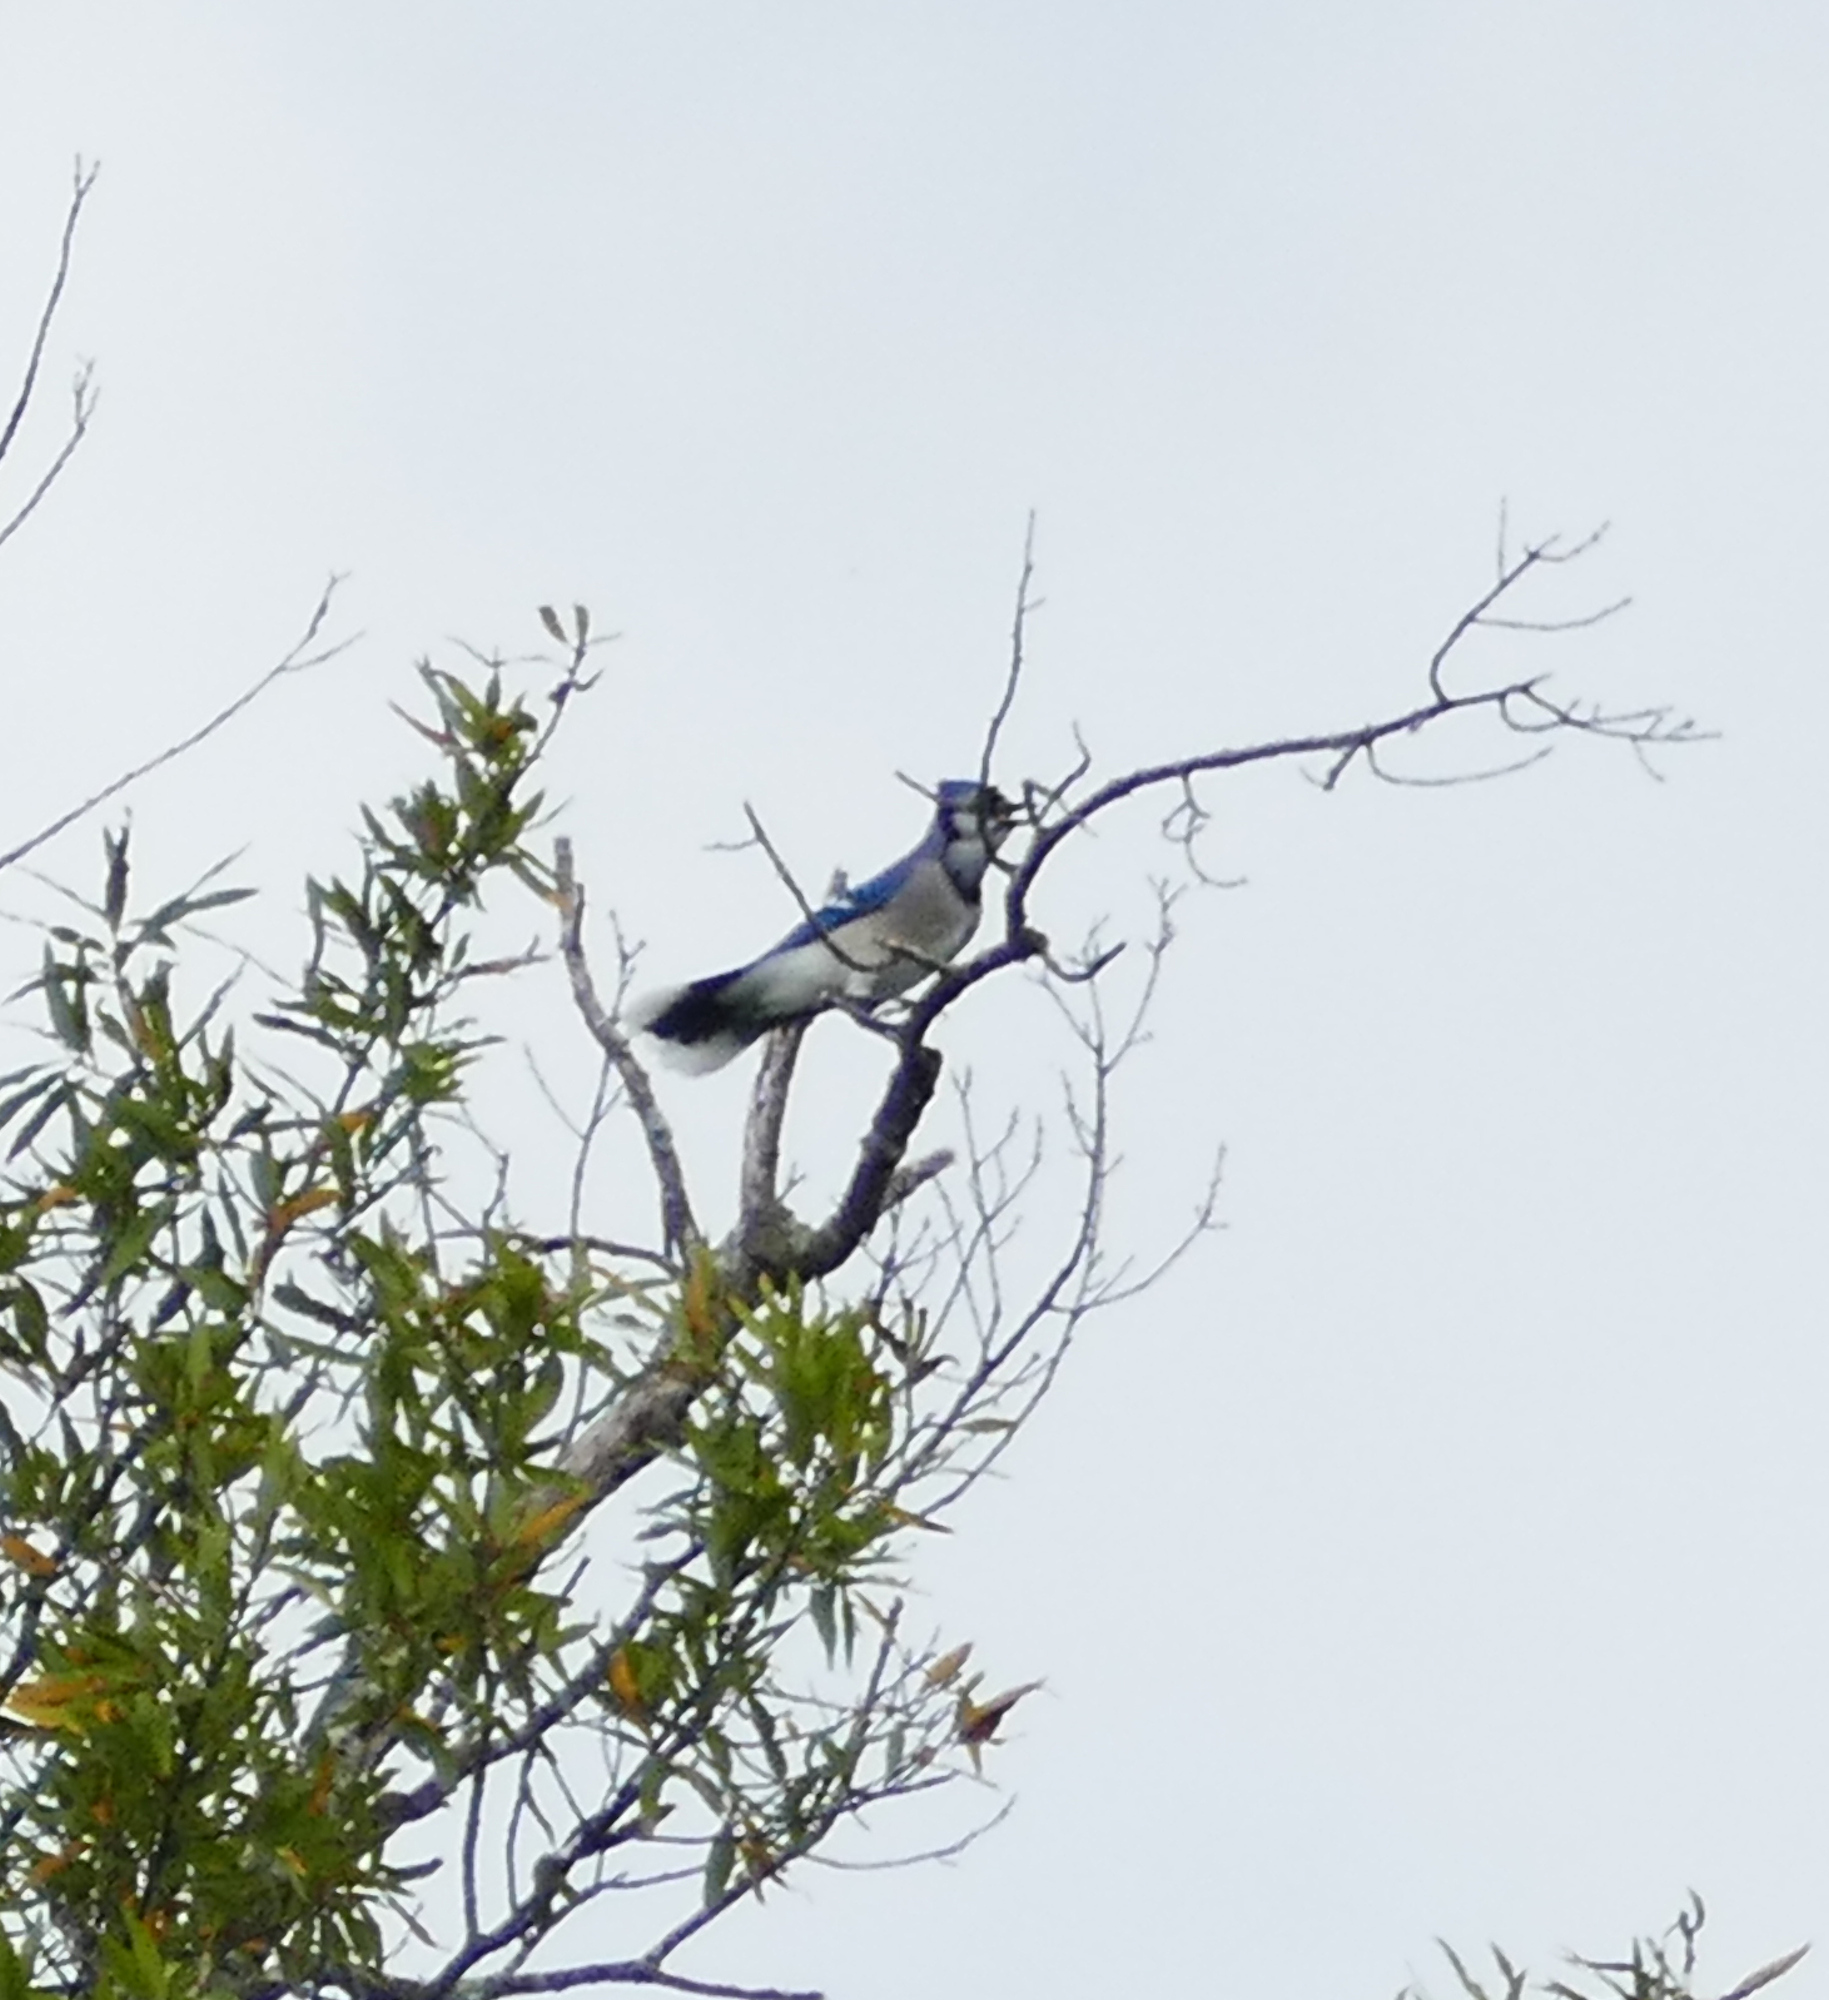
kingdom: Animalia
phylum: Chordata
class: Aves
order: Passeriformes
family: Corvidae
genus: Cyanocitta
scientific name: Cyanocitta cristata
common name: Blue jay
